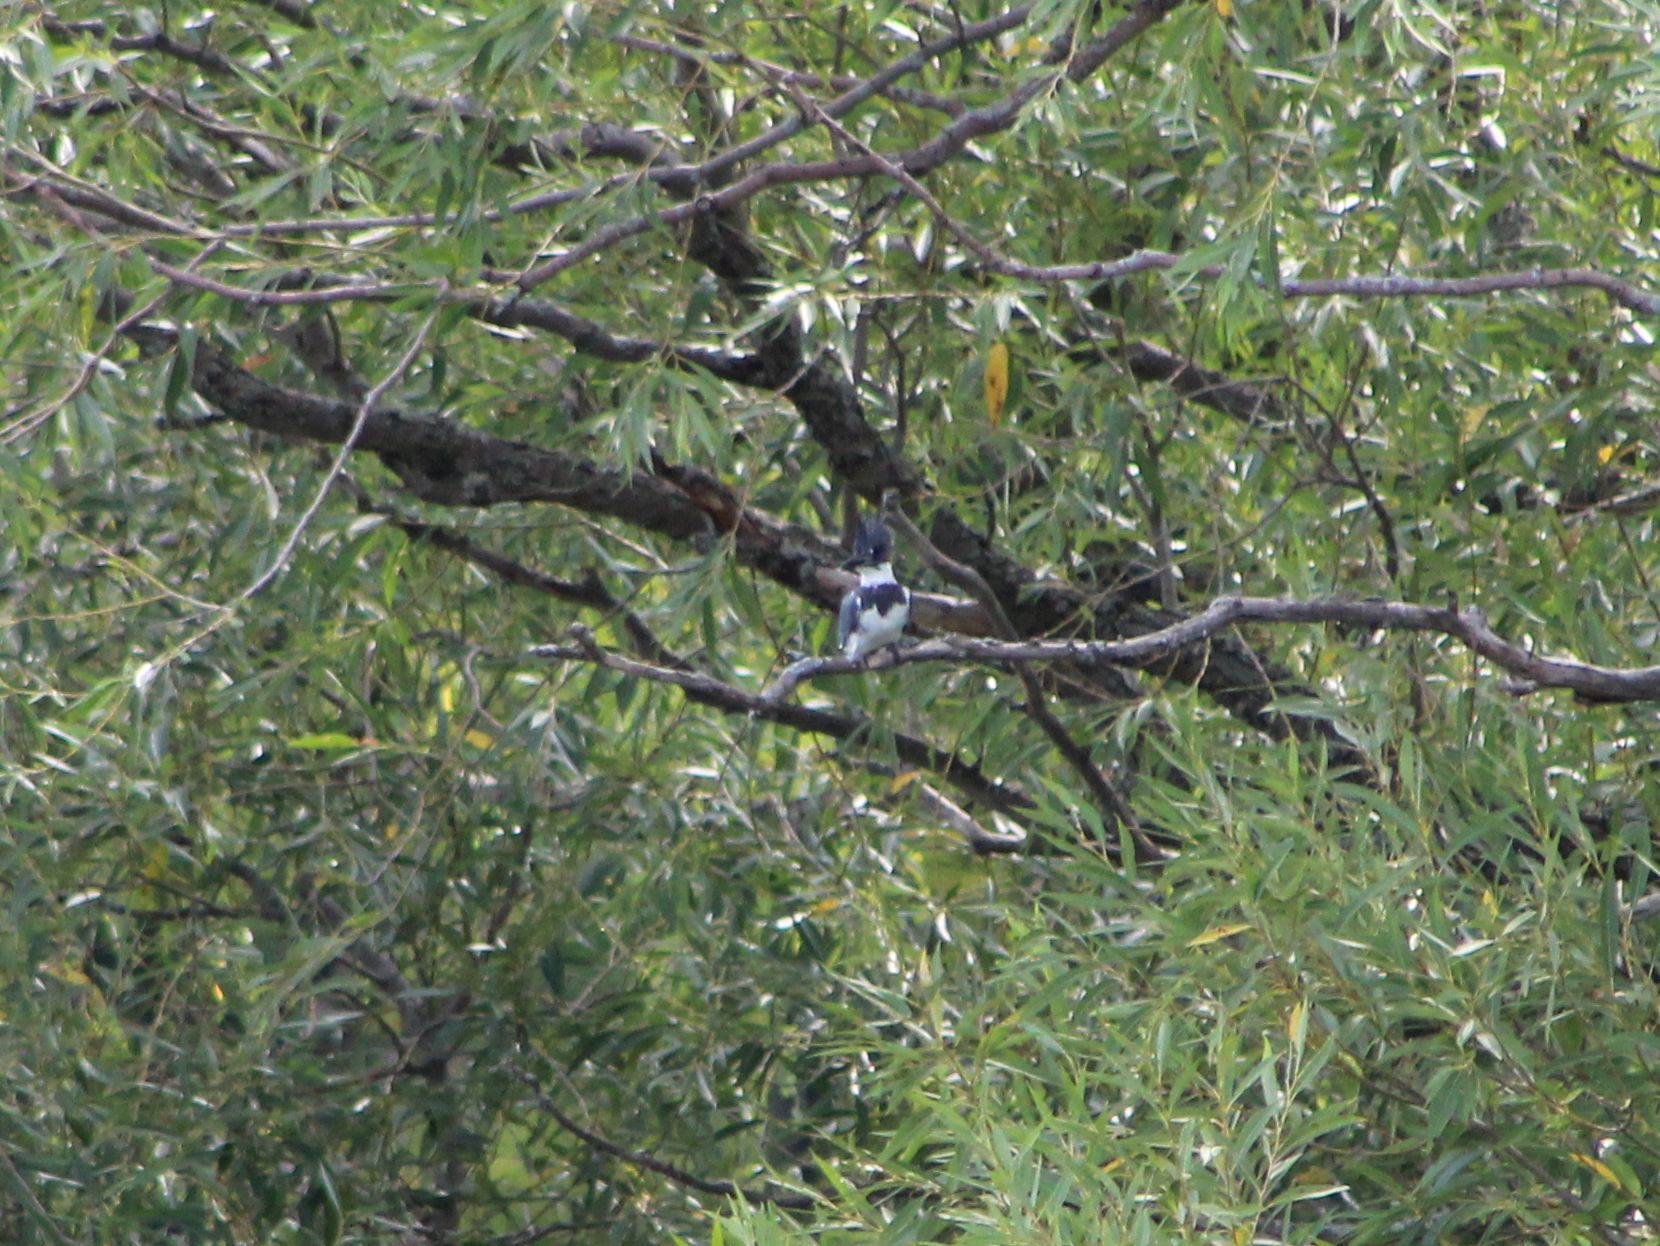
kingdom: Animalia
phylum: Chordata
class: Aves
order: Coraciiformes
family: Alcedinidae
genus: Megaceryle
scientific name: Megaceryle alcyon
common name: Belted kingfisher
